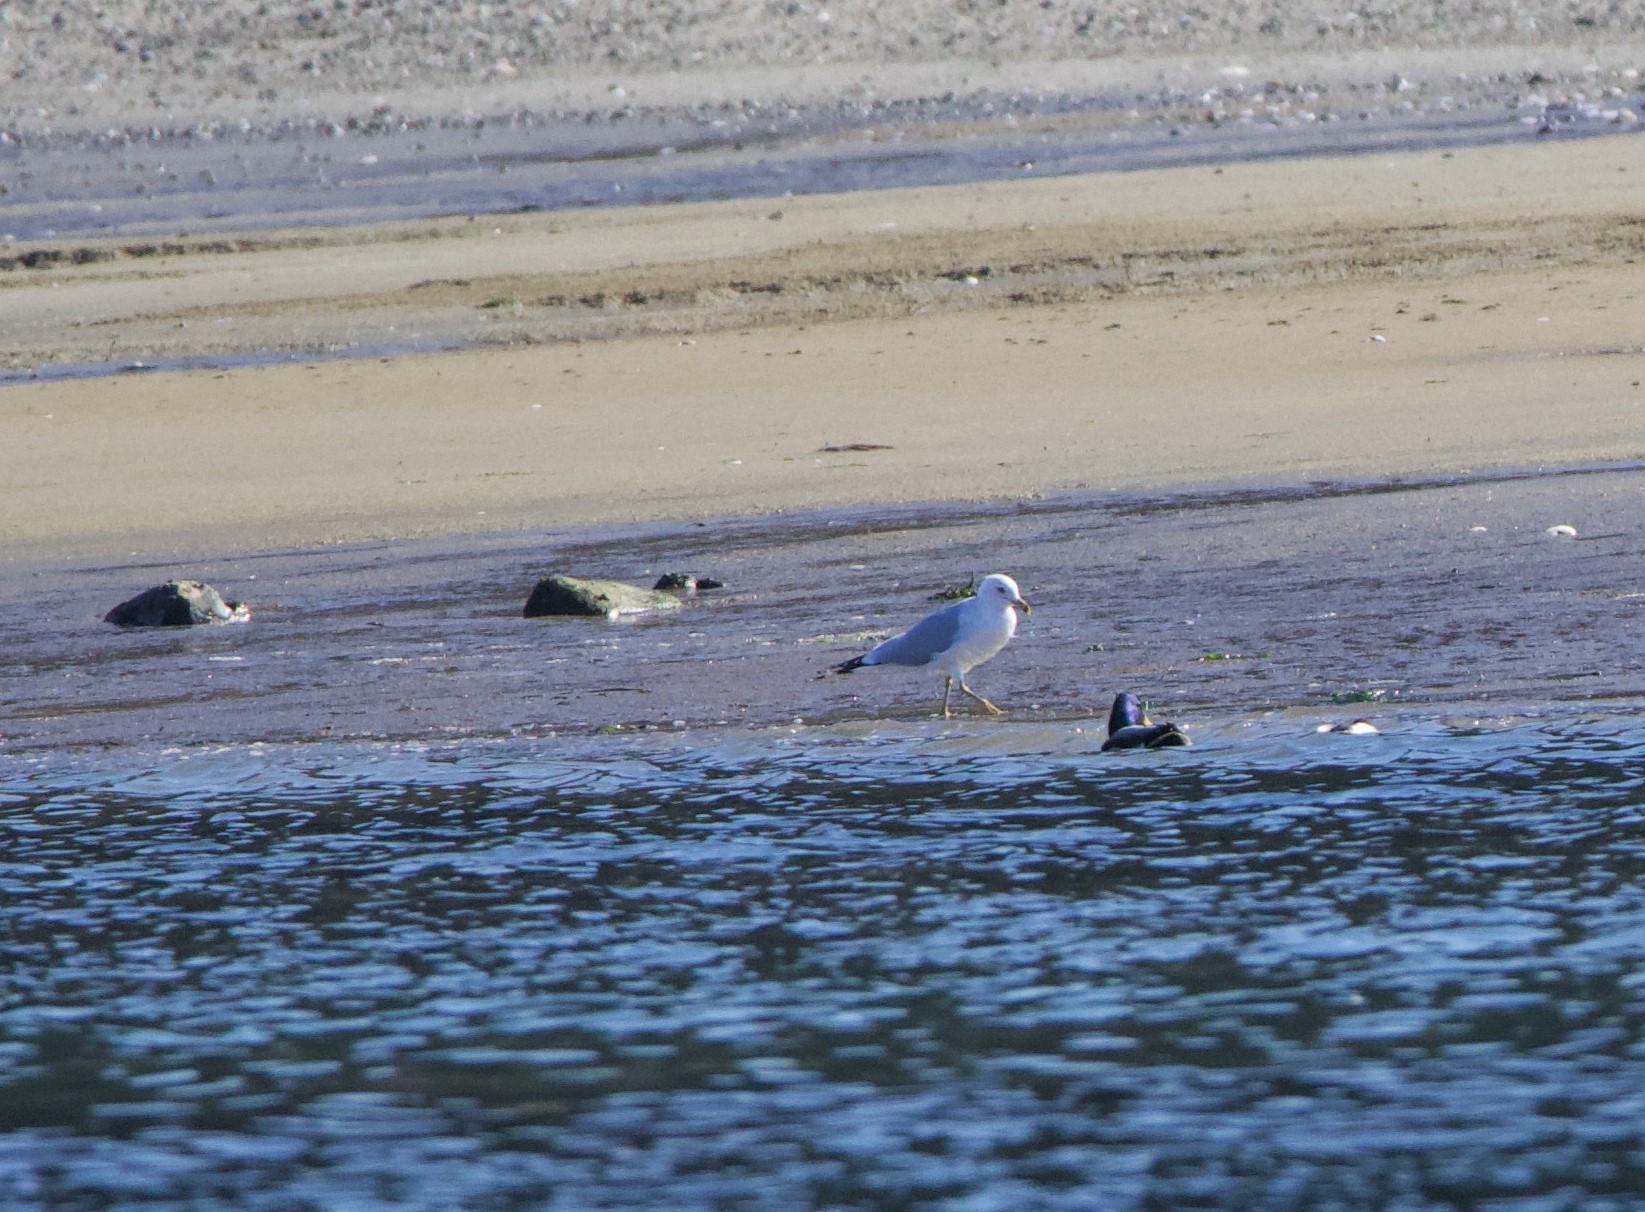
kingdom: Animalia
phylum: Chordata
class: Aves
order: Charadriiformes
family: Laridae
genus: Larus
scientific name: Larus delawarensis
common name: Ring-billed gull
